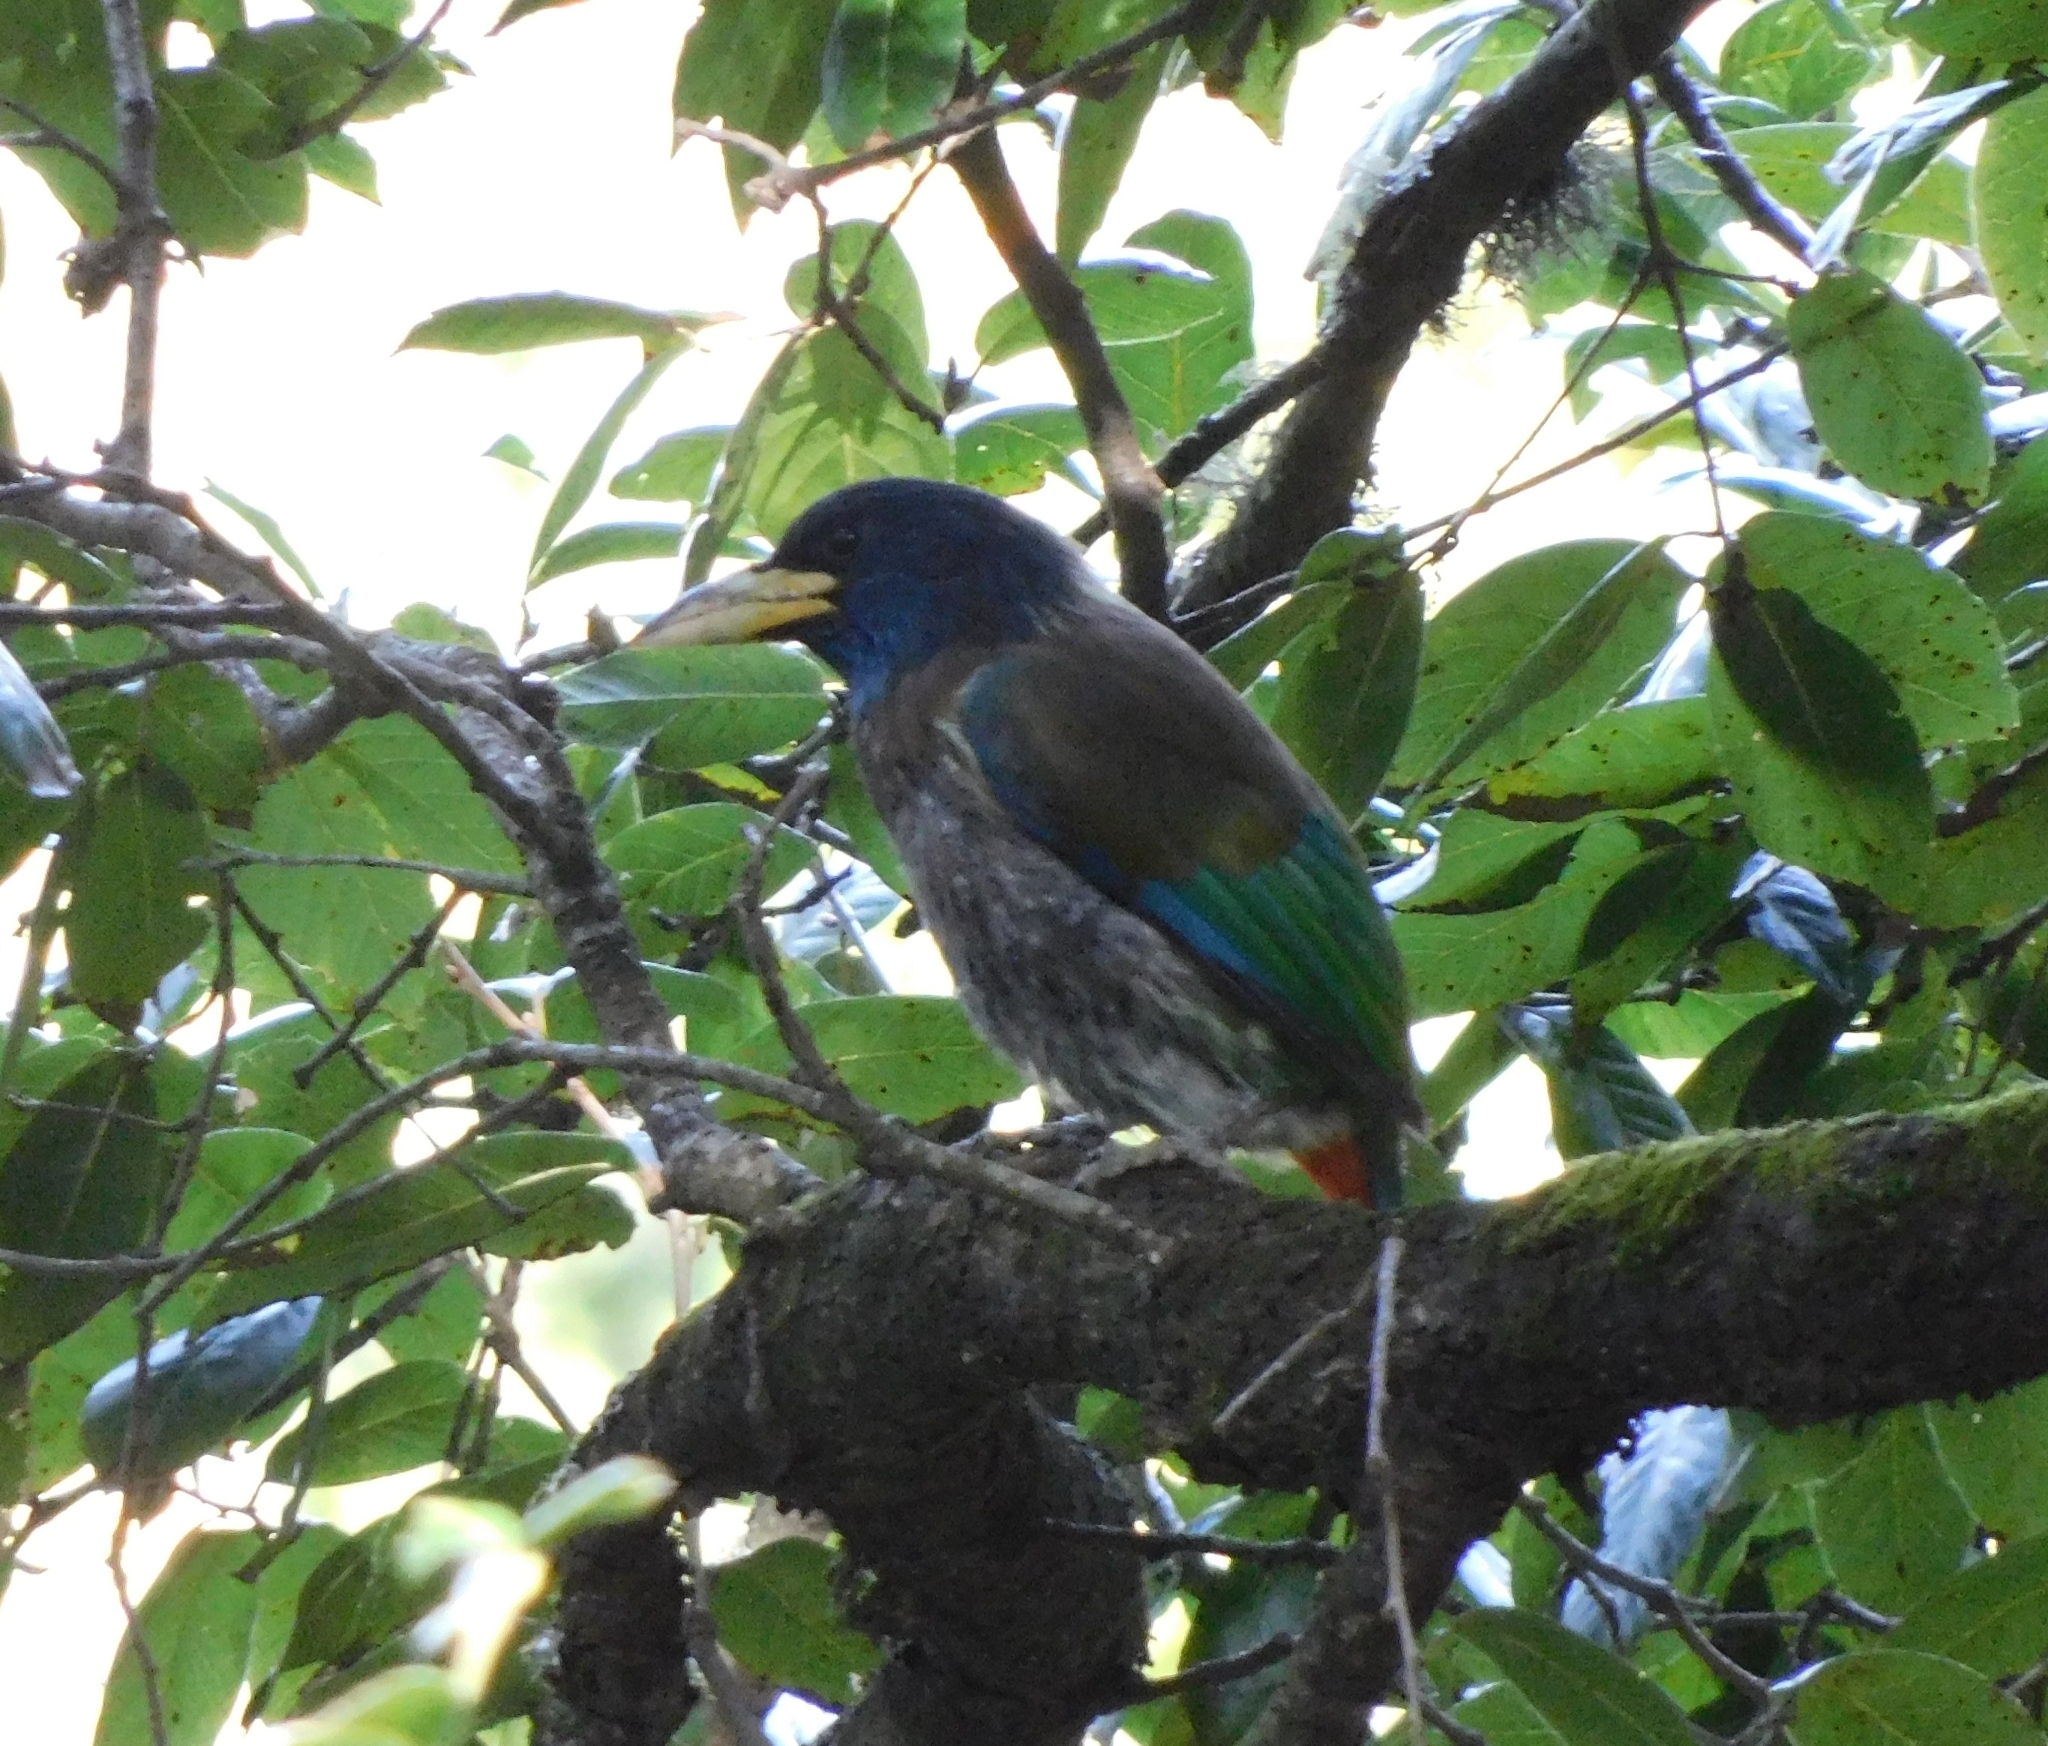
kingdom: Animalia
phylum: Chordata
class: Aves
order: Piciformes
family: Megalaimidae
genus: Psilopogon
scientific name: Psilopogon virens
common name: Great barbet
